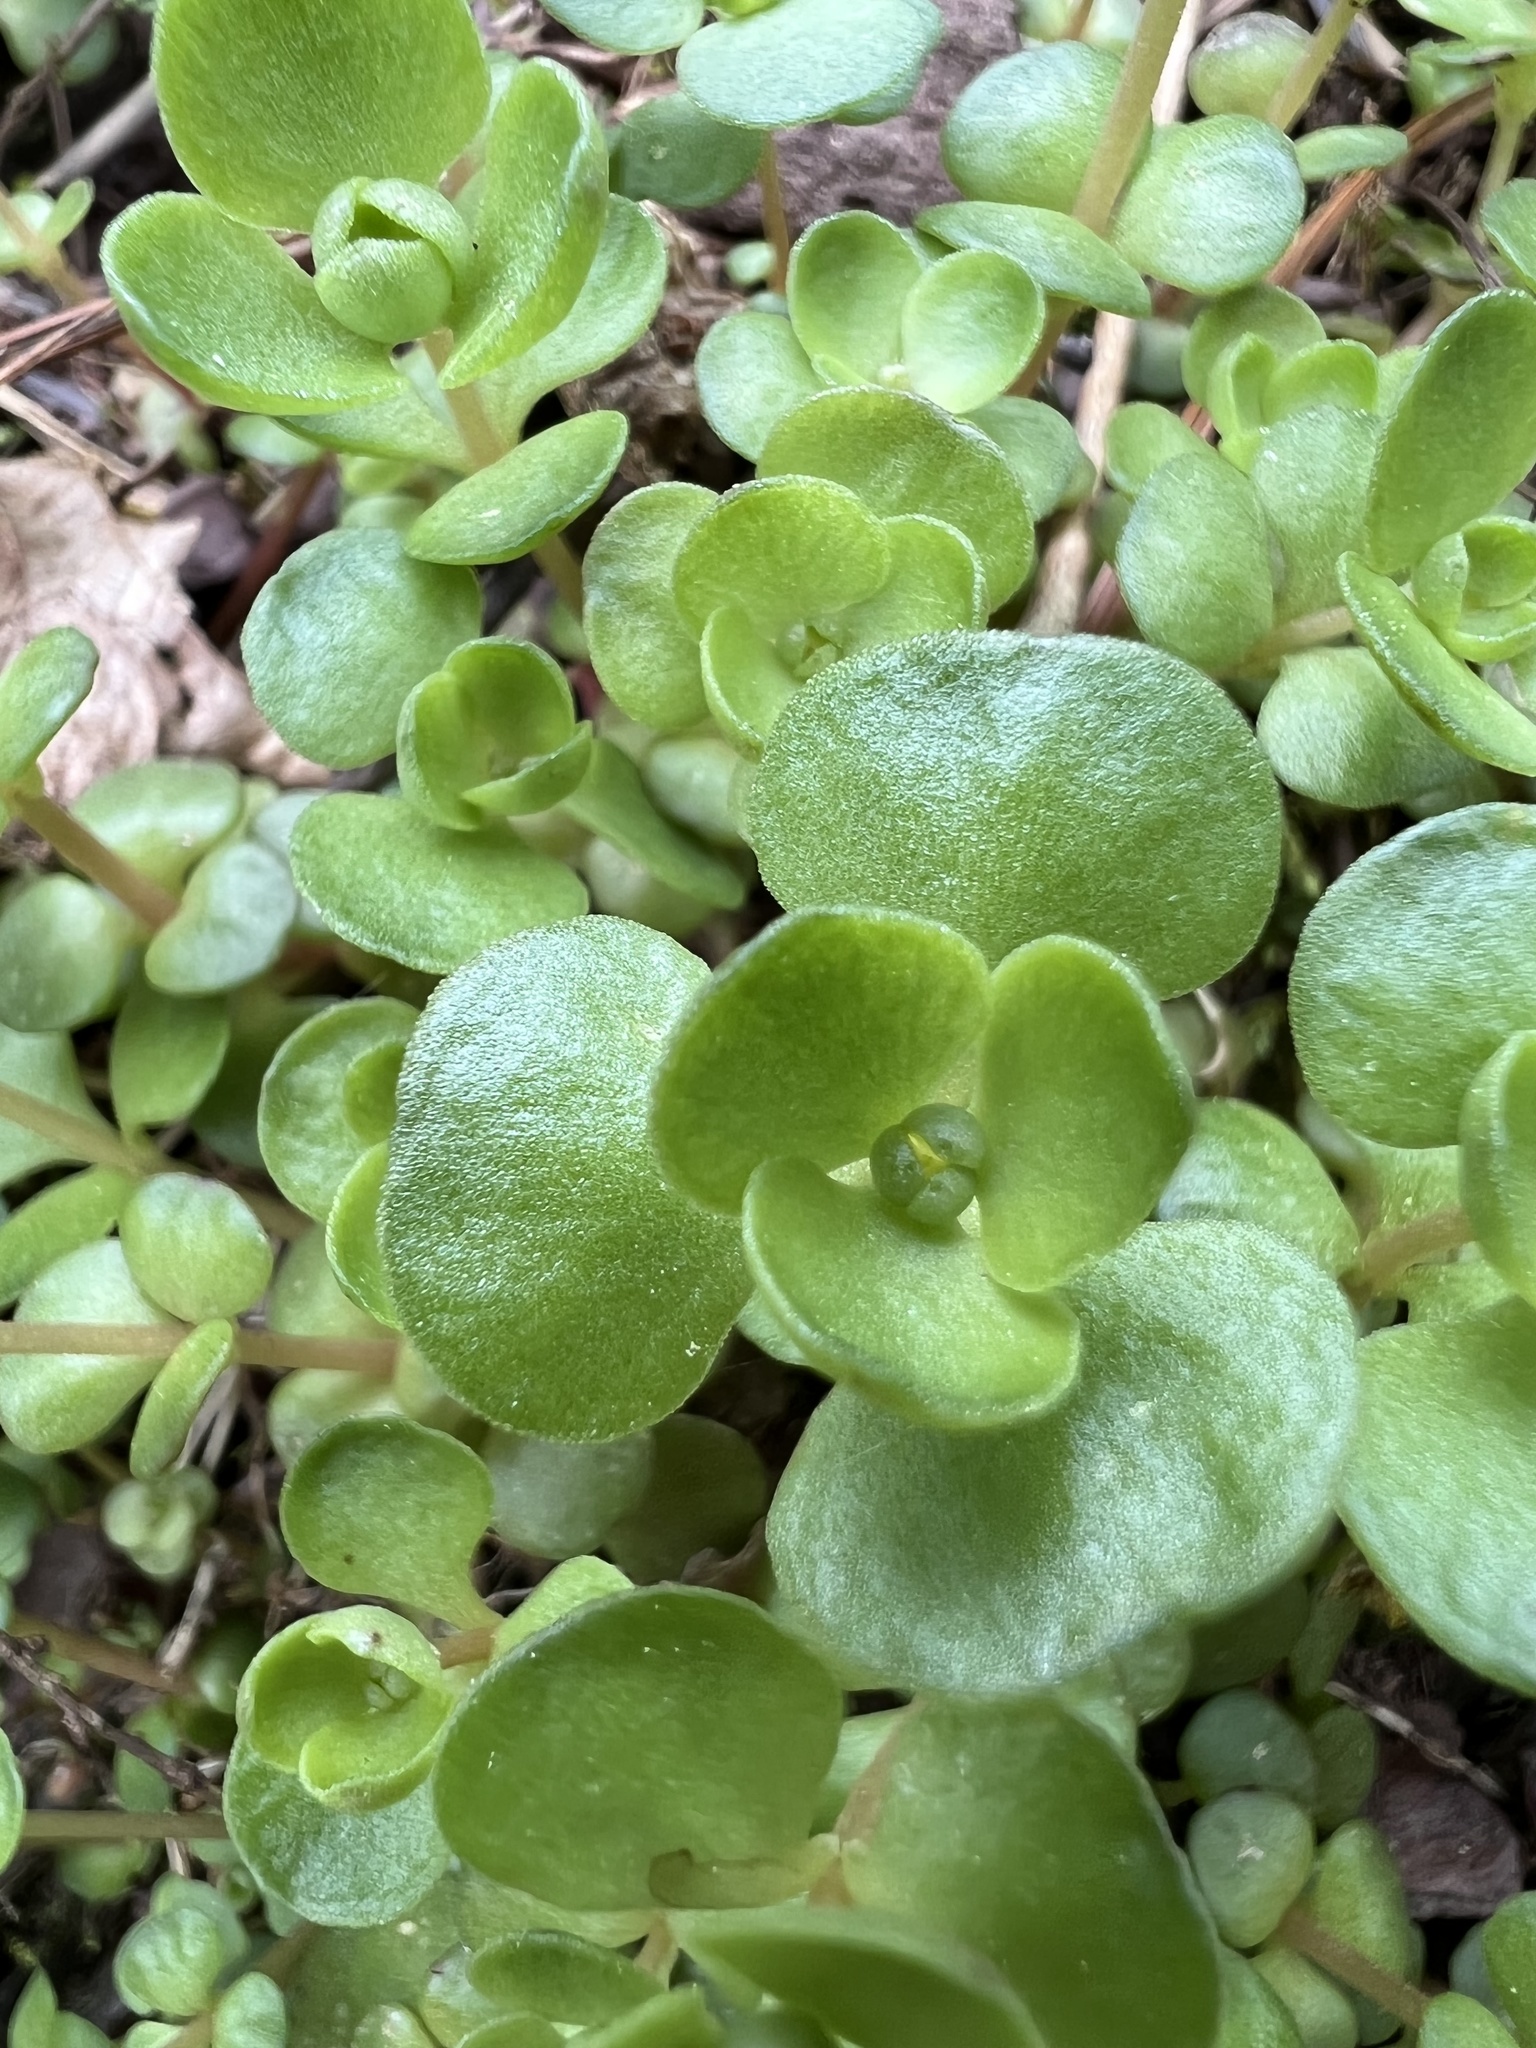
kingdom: Plantae
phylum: Tracheophyta
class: Magnoliopsida
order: Saxifragales
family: Crassulaceae
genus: Sedum
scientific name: Sedum ternatum
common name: Wild stonecrop
